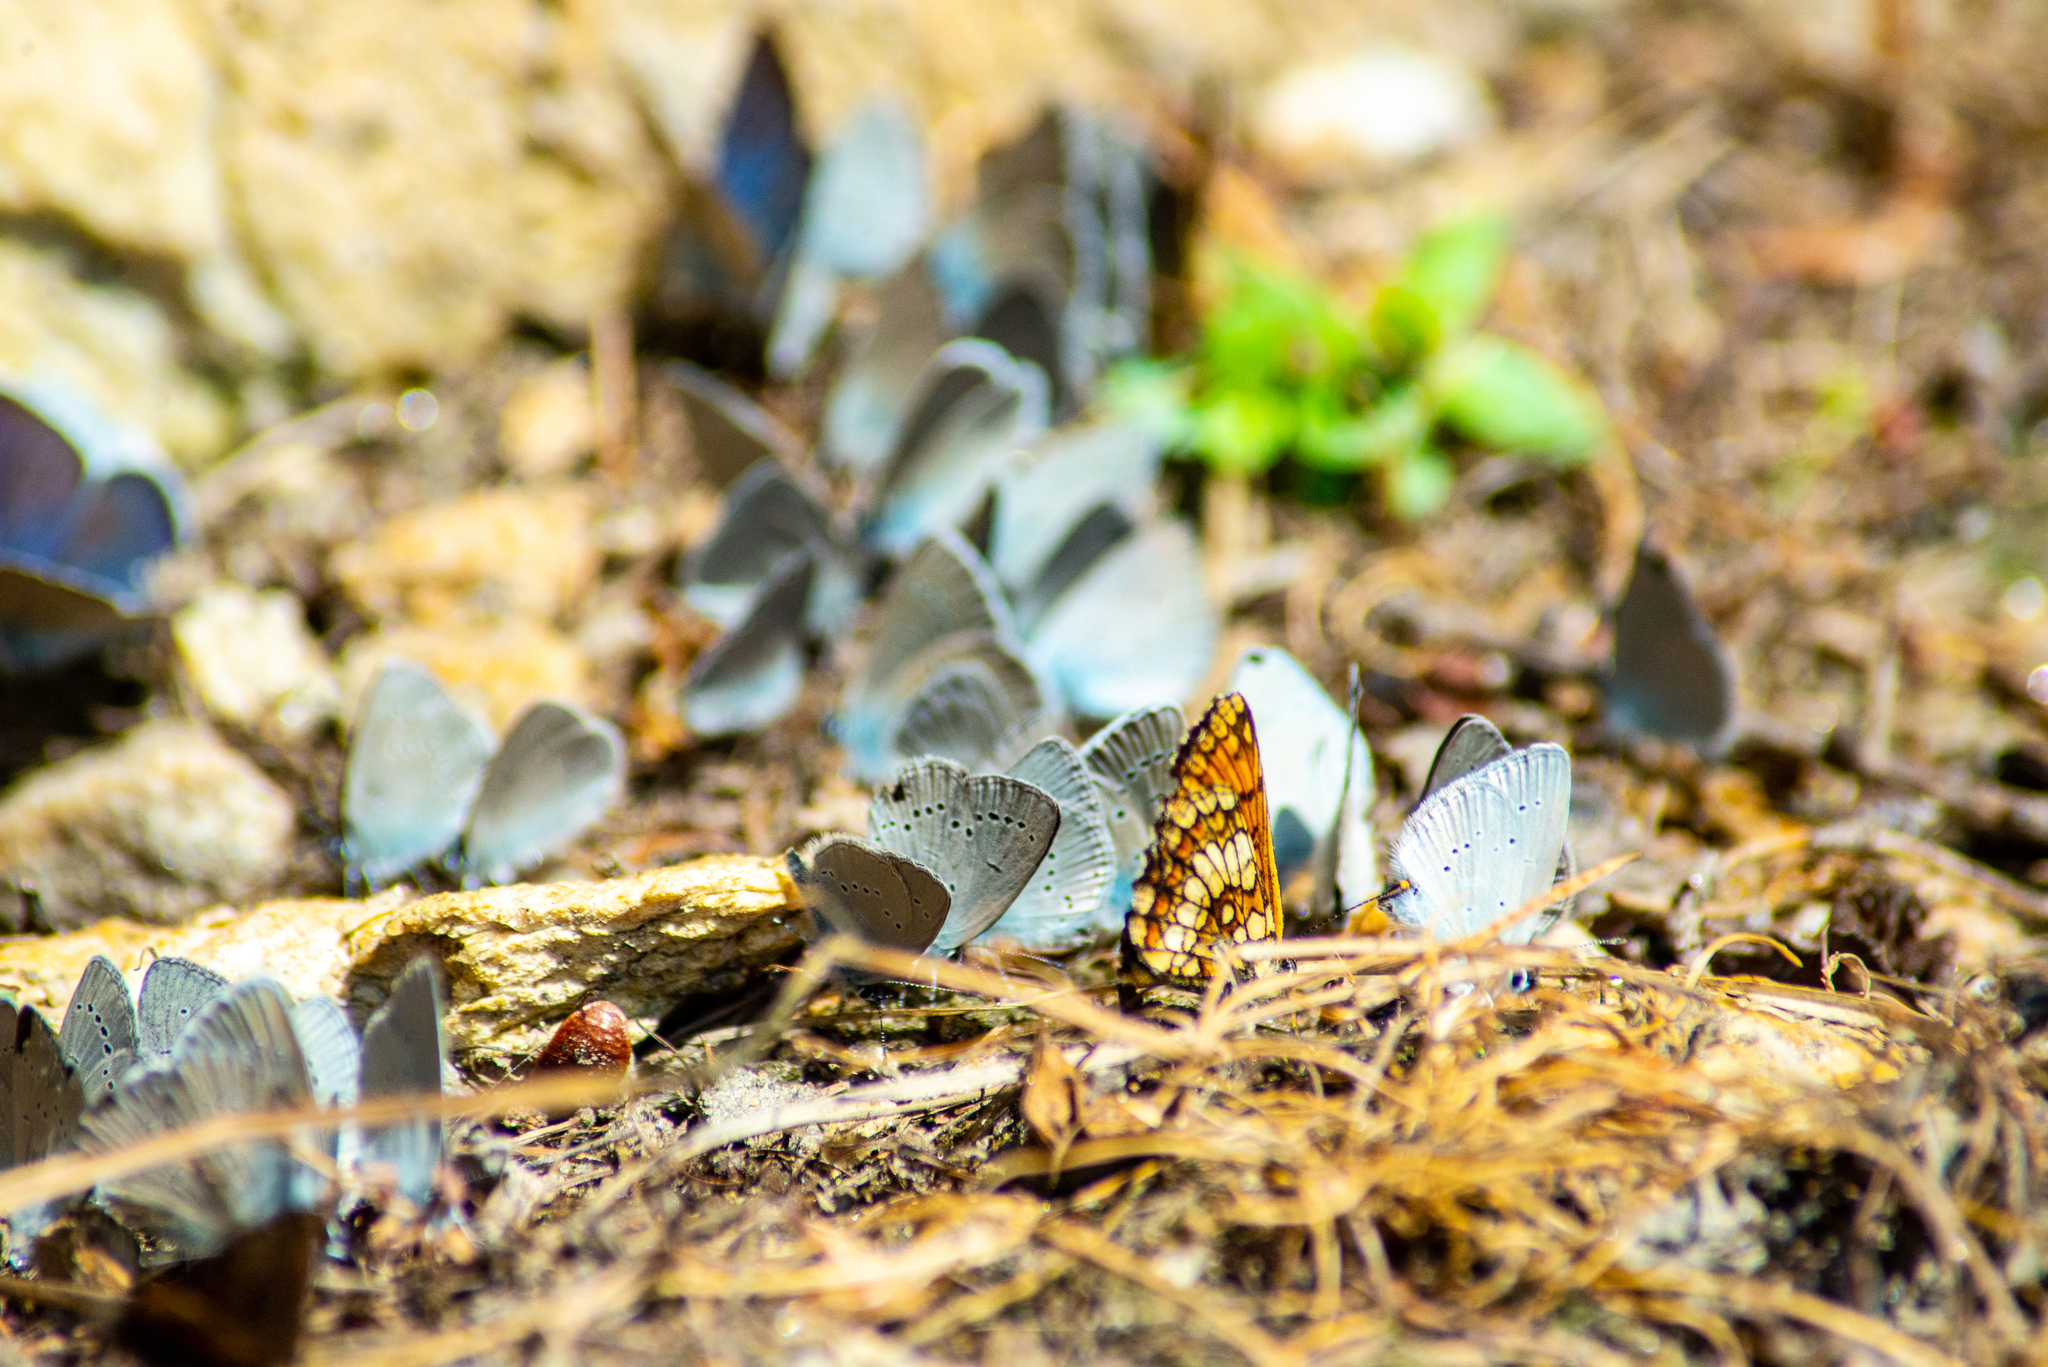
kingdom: Animalia
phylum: Arthropoda
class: Insecta
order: Lepidoptera
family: Lycaenidae
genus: Cupido
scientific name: Cupido minimus
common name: Small blue
